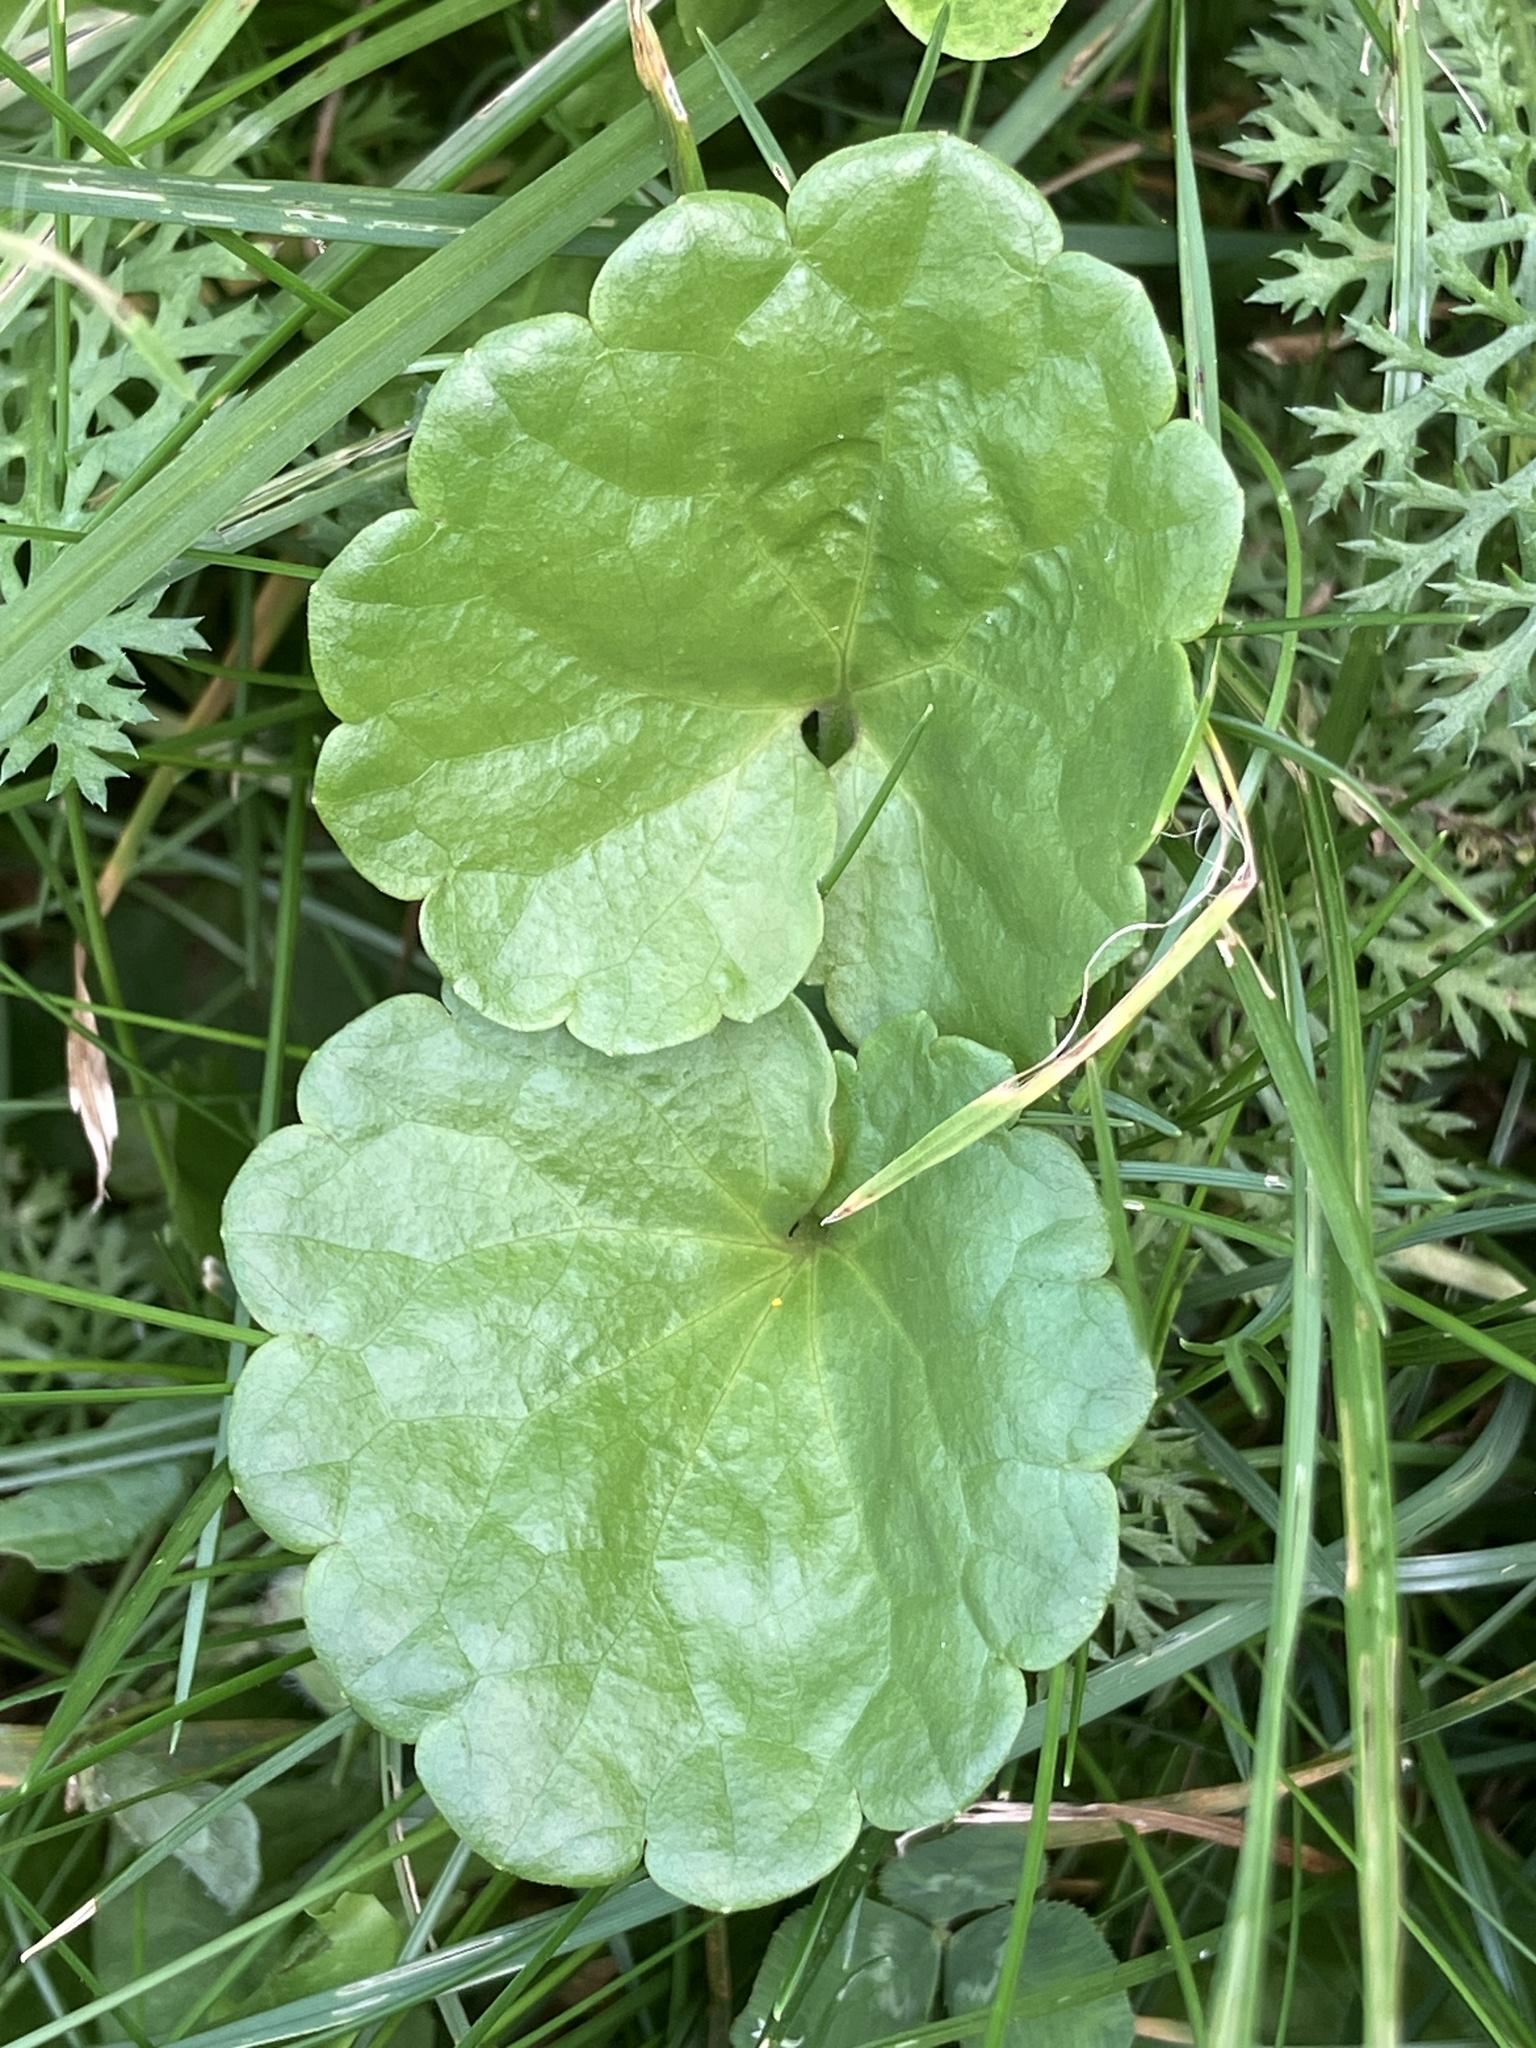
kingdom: Plantae
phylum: Tracheophyta
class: Magnoliopsida
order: Lamiales
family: Lamiaceae
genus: Glechoma
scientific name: Glechoma hederacea
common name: Ground ivy
